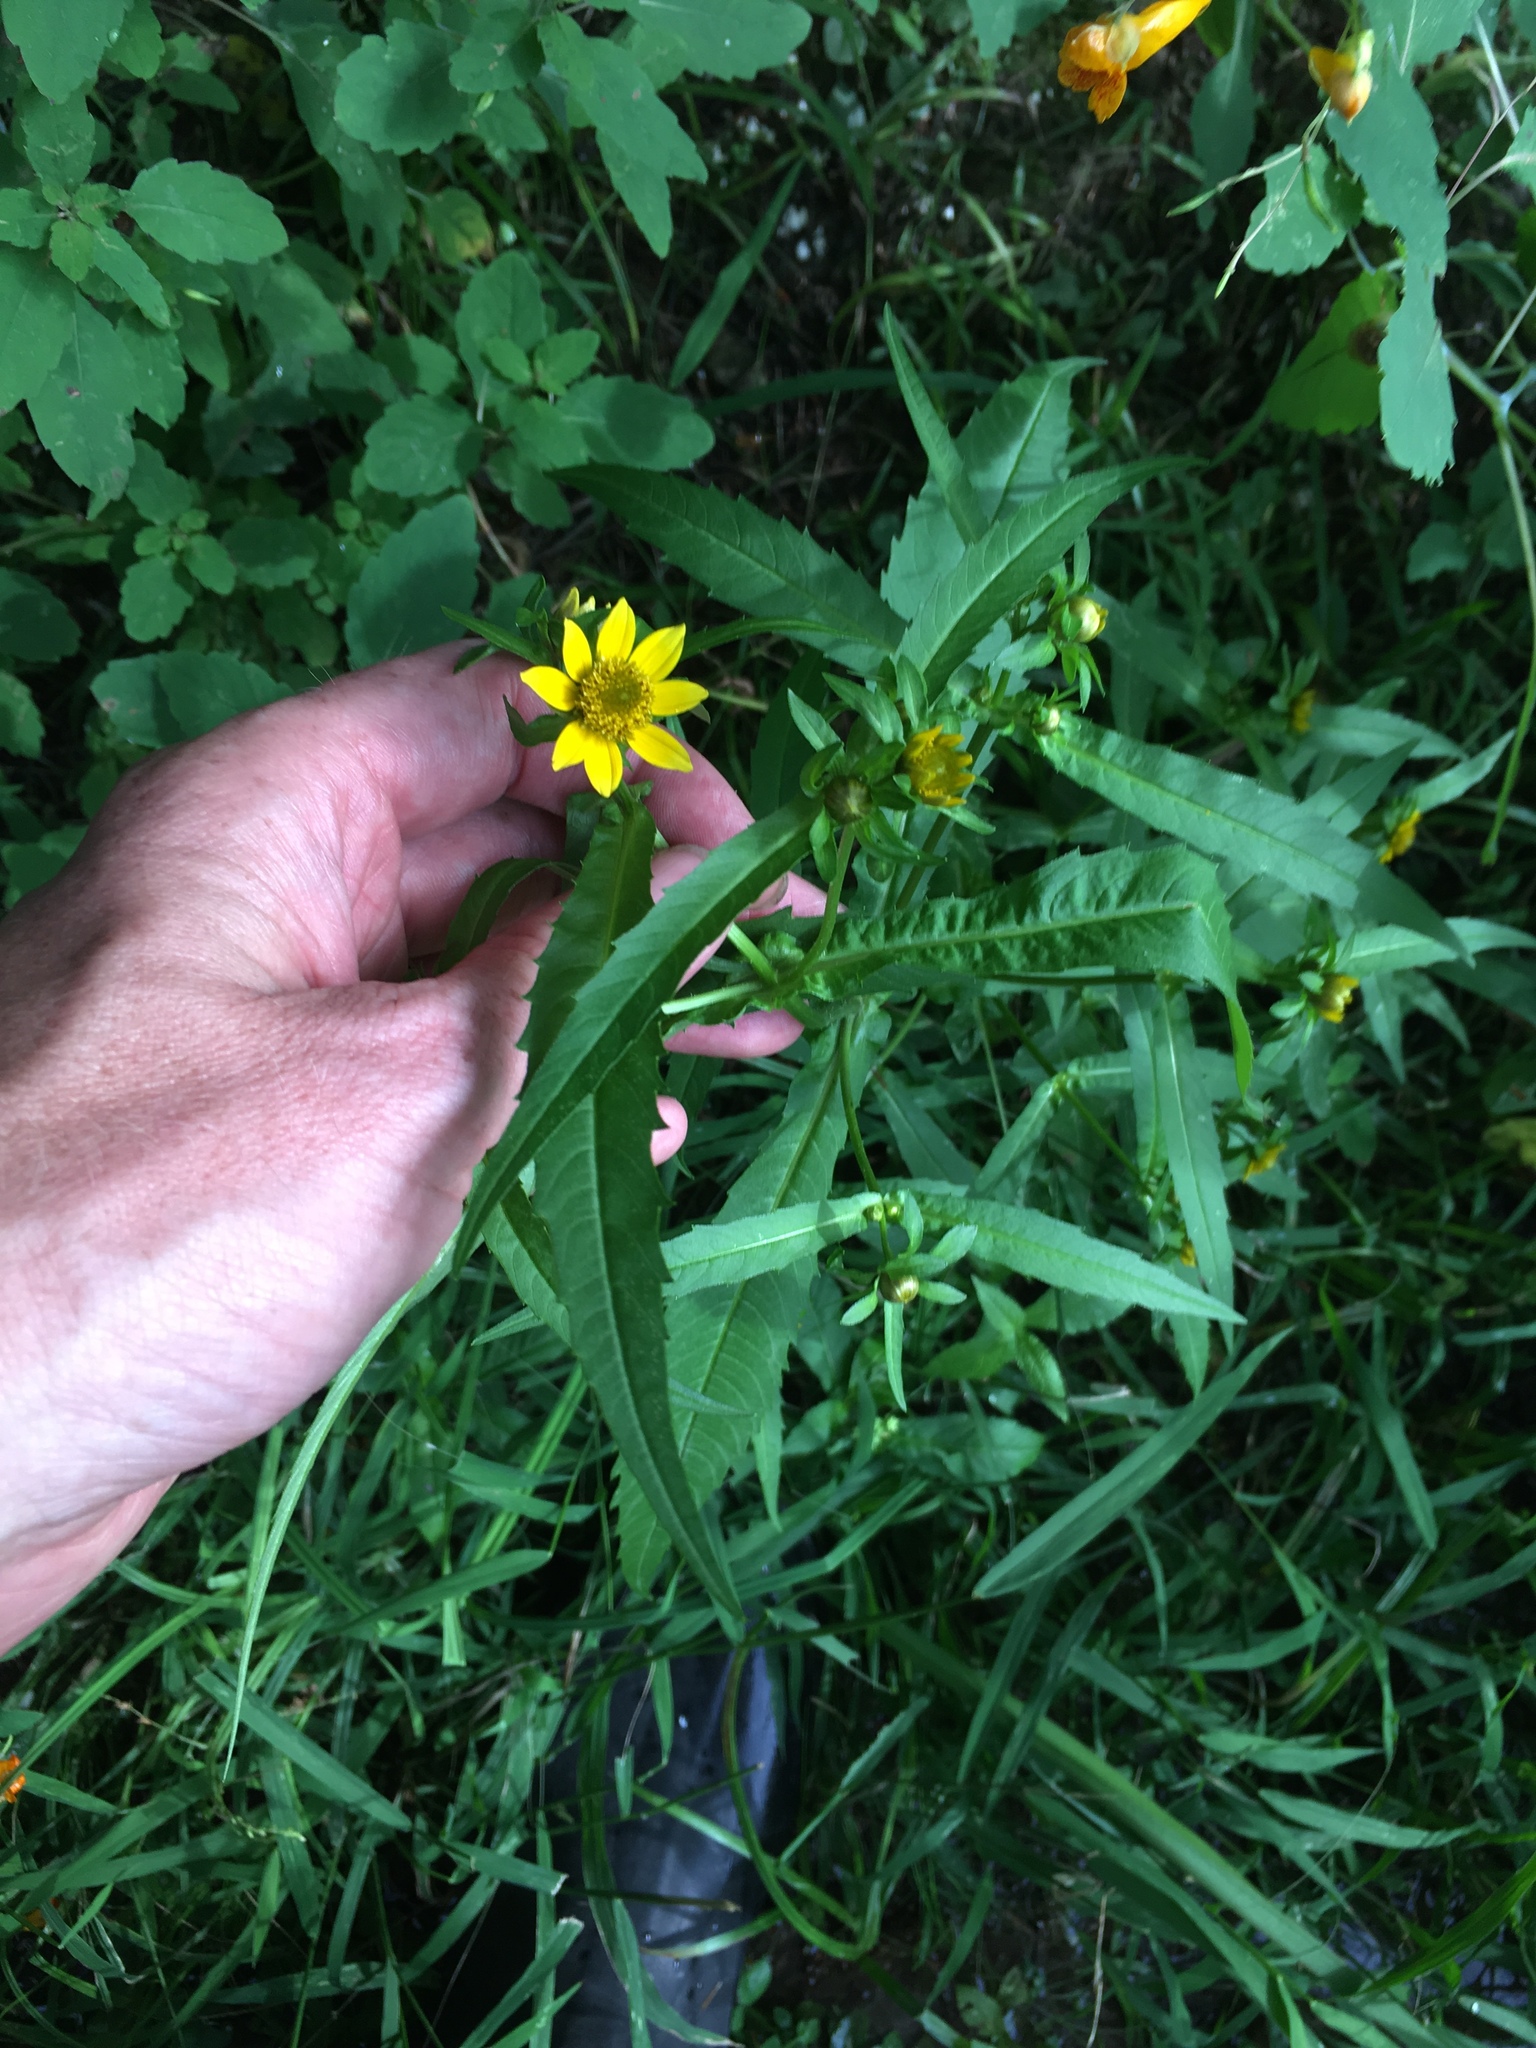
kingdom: Plantae
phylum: Tracheophyta
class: Magnoliopsida
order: Asterales
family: Asteraceae
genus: Bidens
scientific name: Bidens cernua
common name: Nodding bur-marigold
